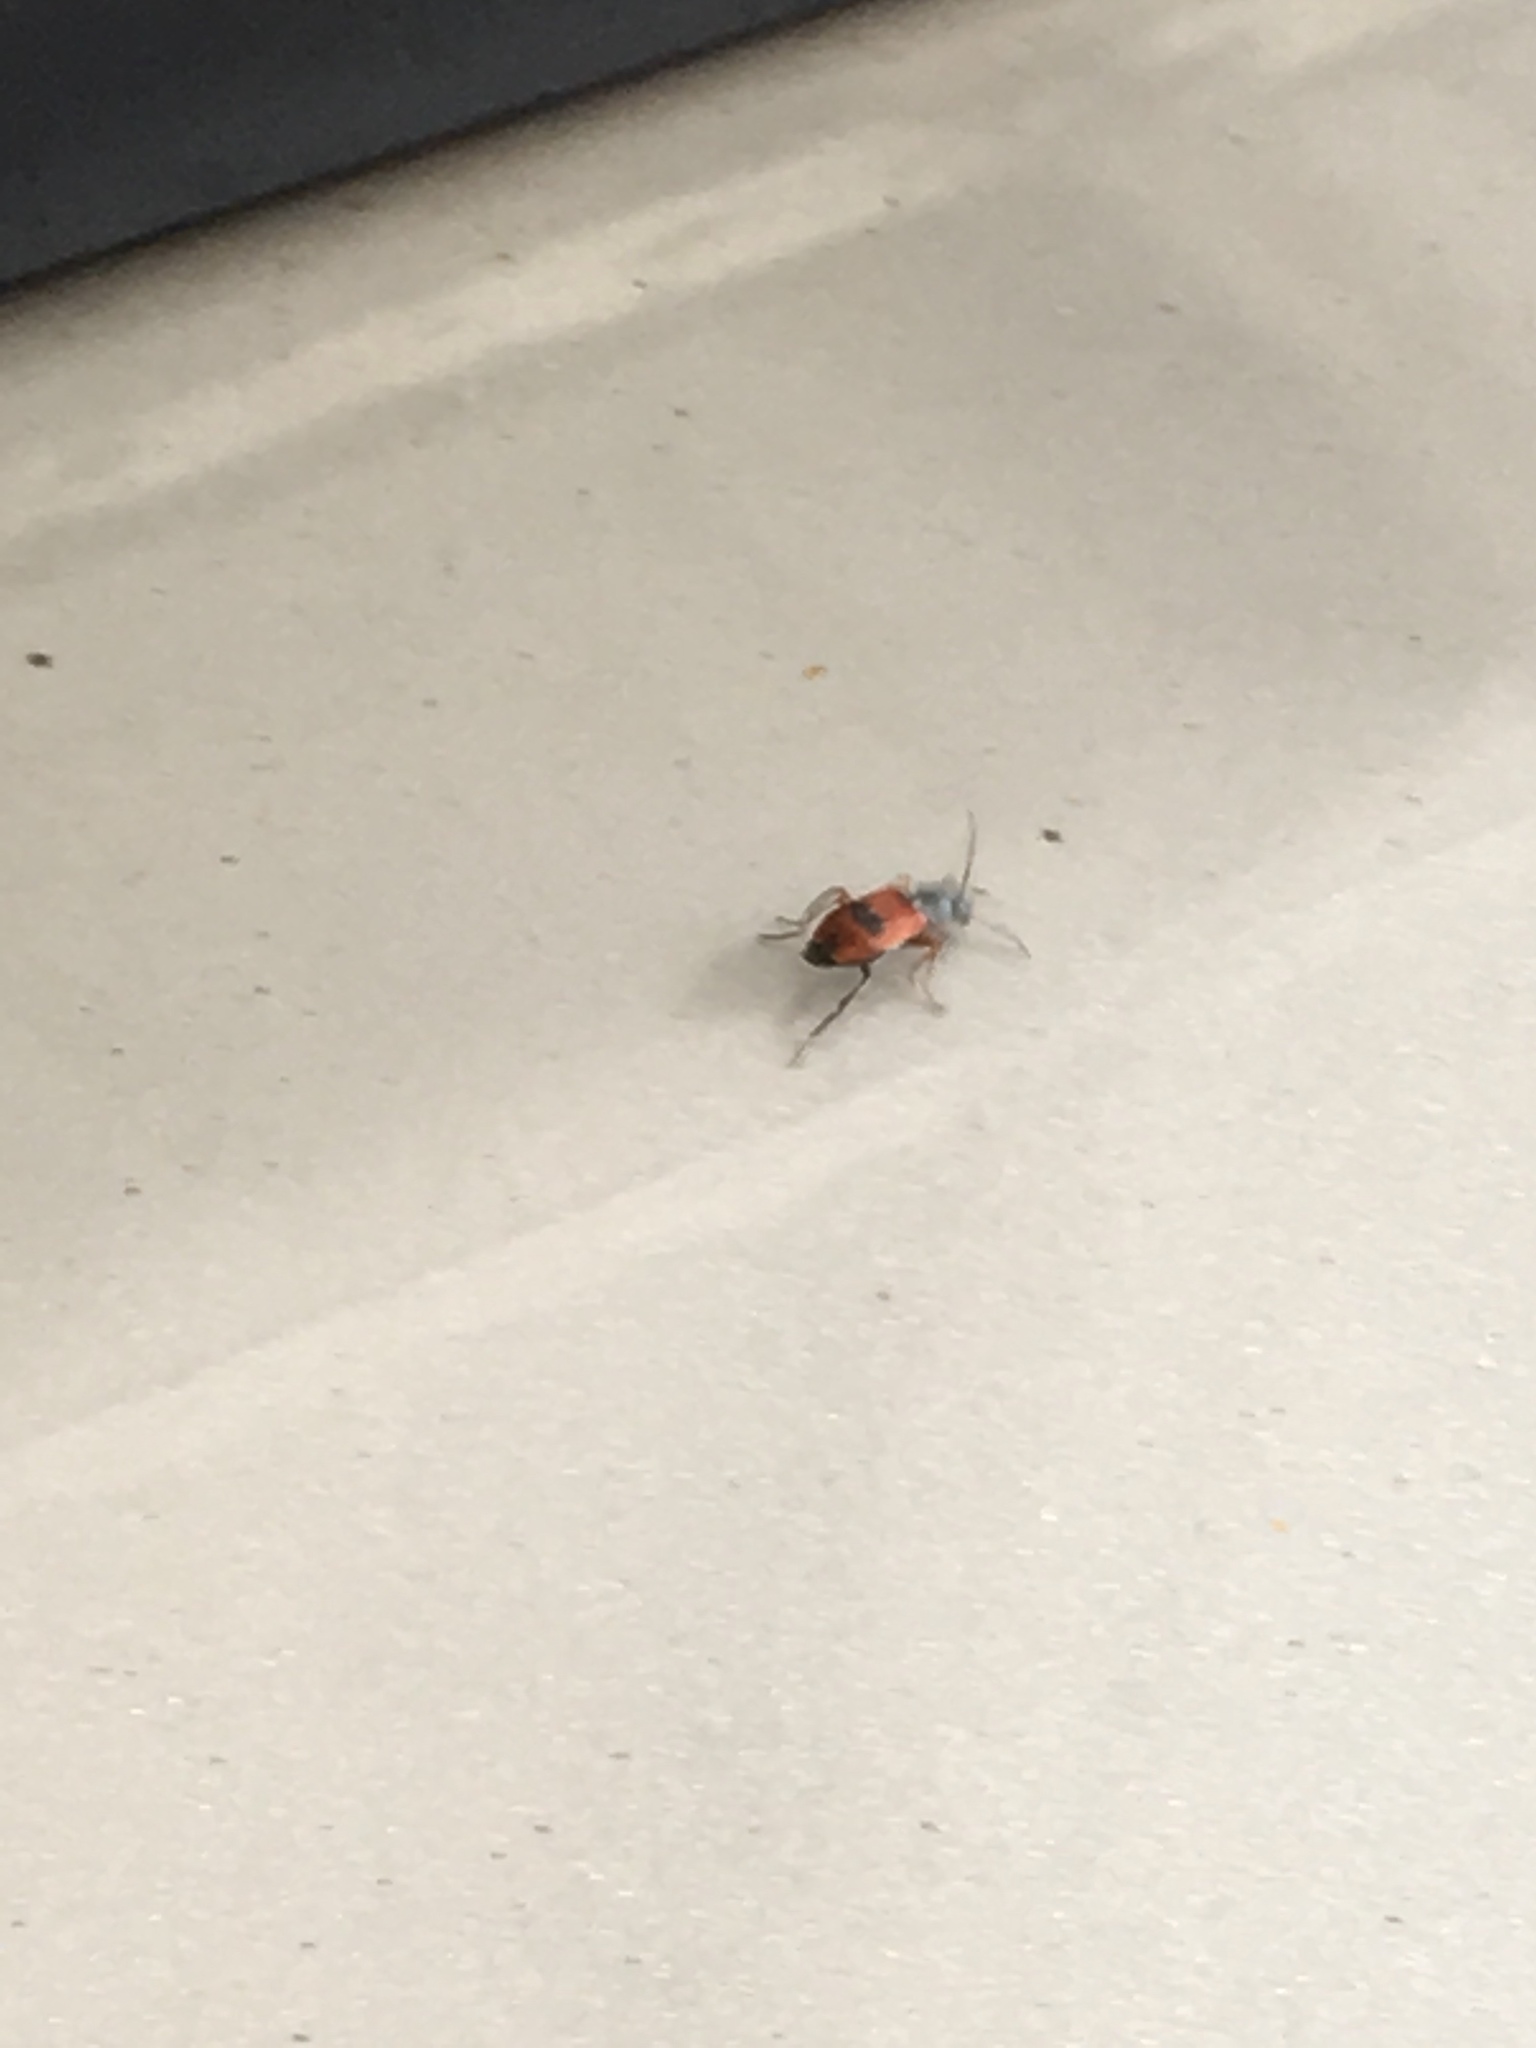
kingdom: Animalia
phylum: Arthropoda
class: Insecta
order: Coleoptera
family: Melyridae
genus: Anthocomus
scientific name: Anthocomus equestris
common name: Black-banded soft-winged flower beetle
